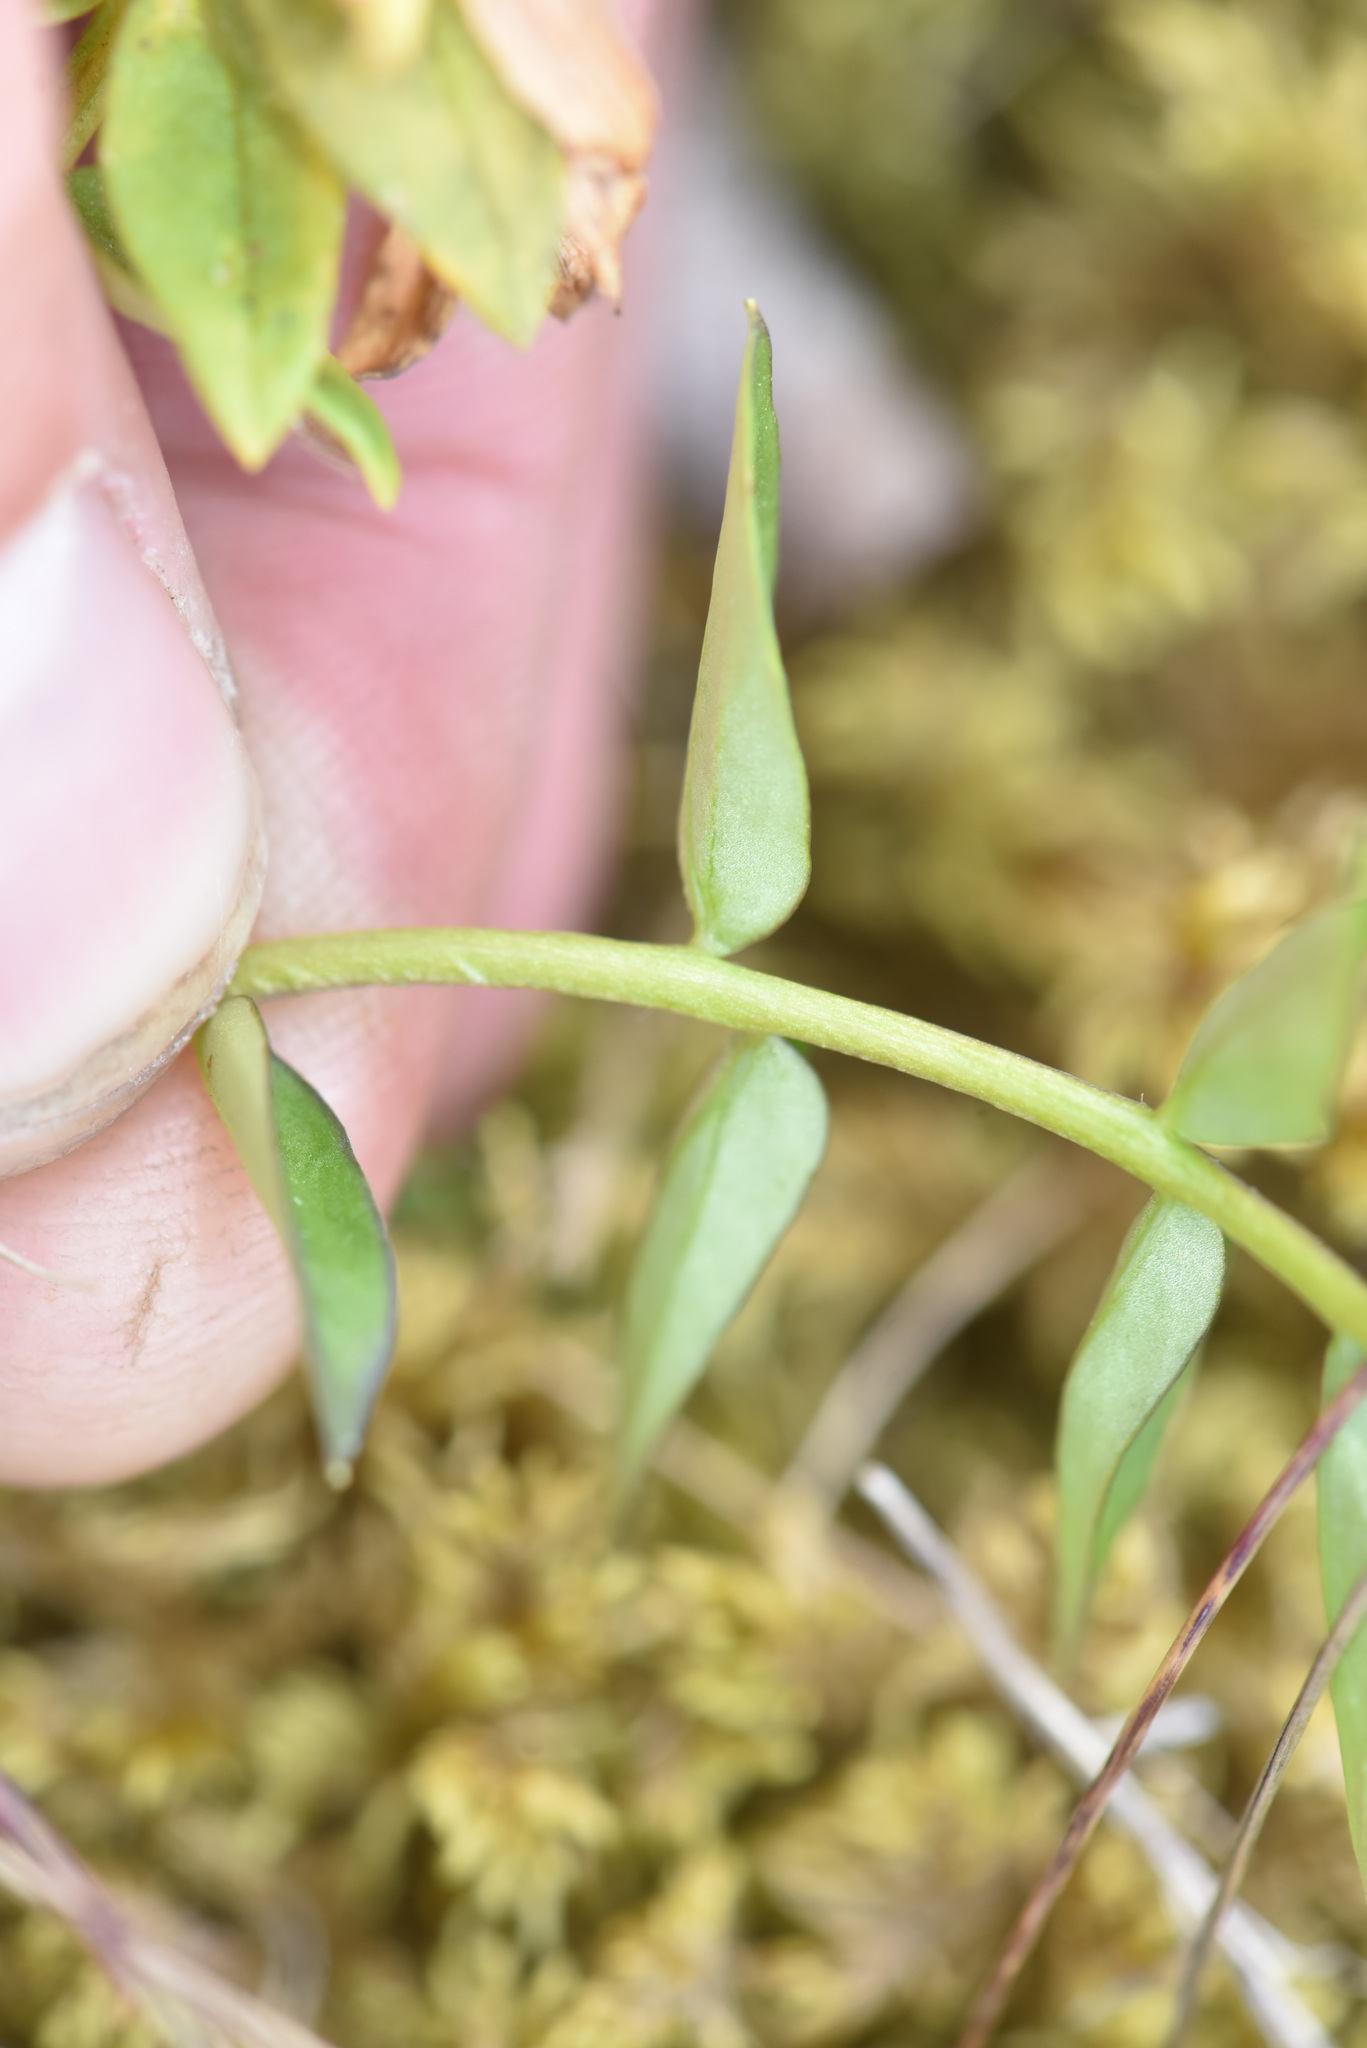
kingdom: Plantae
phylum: Tracheophyta
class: Magnoliopsida
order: Ericales
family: Polemoniaceae
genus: Polemonium
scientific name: Polemonium acutiflorum
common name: Tall jacob's-ladder
